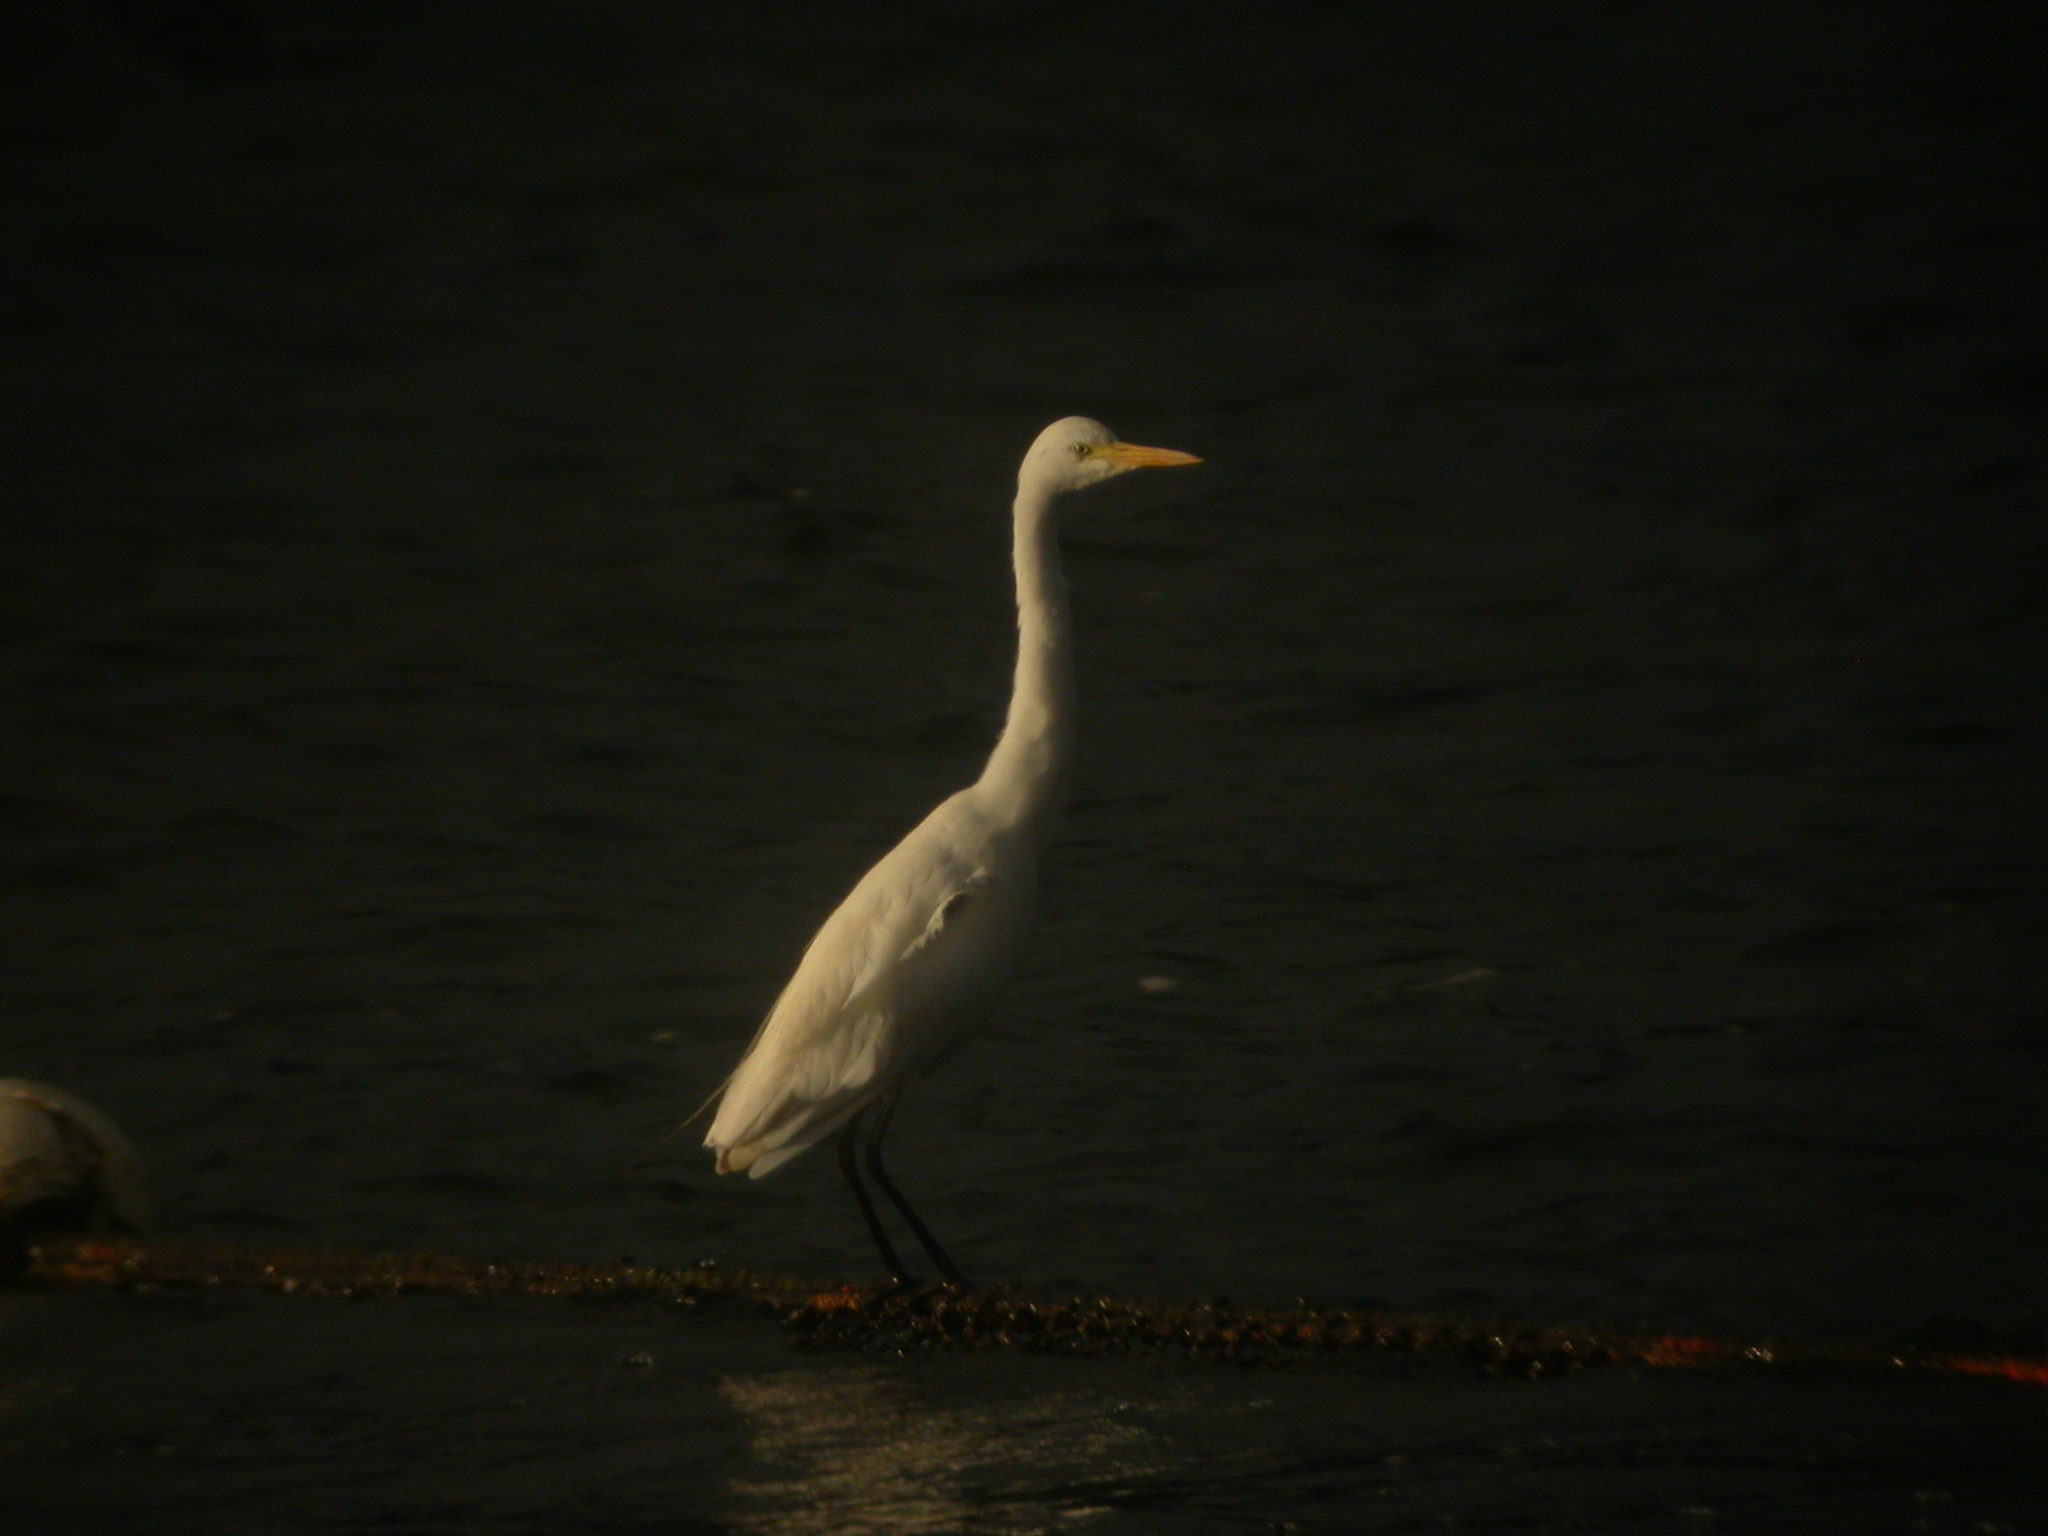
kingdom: Animalia
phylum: Chordata
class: Aves
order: Pelecaniformes
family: Ardeidae
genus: Egretta
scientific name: Egretta intermedia
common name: Intermediate egret
